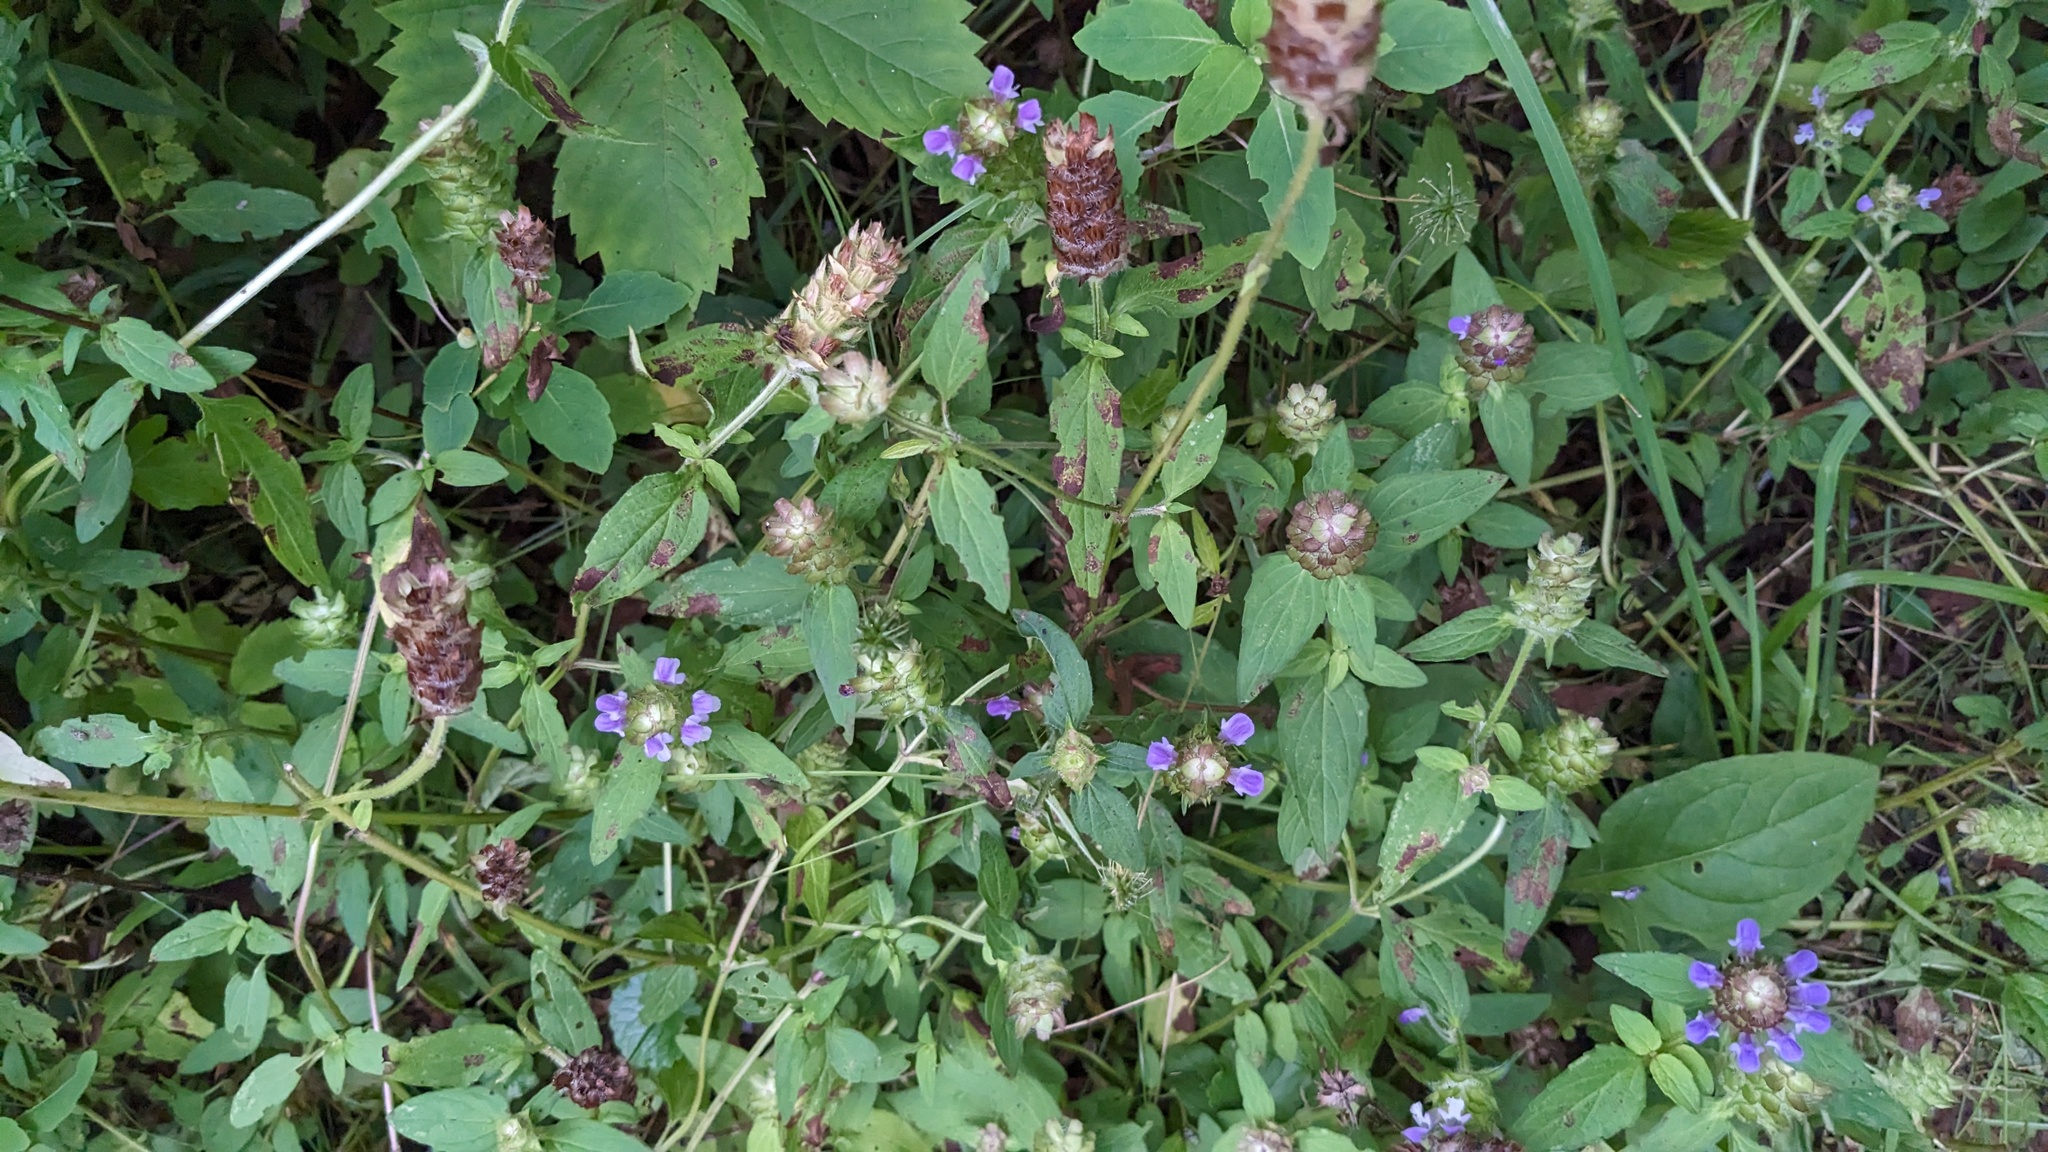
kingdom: Plantae
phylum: Tracheophyta
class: Magnoliopsida
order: Lamiales
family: Lamiaceae
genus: Prunella
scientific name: Prunella vulgaris
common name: Heal-all
